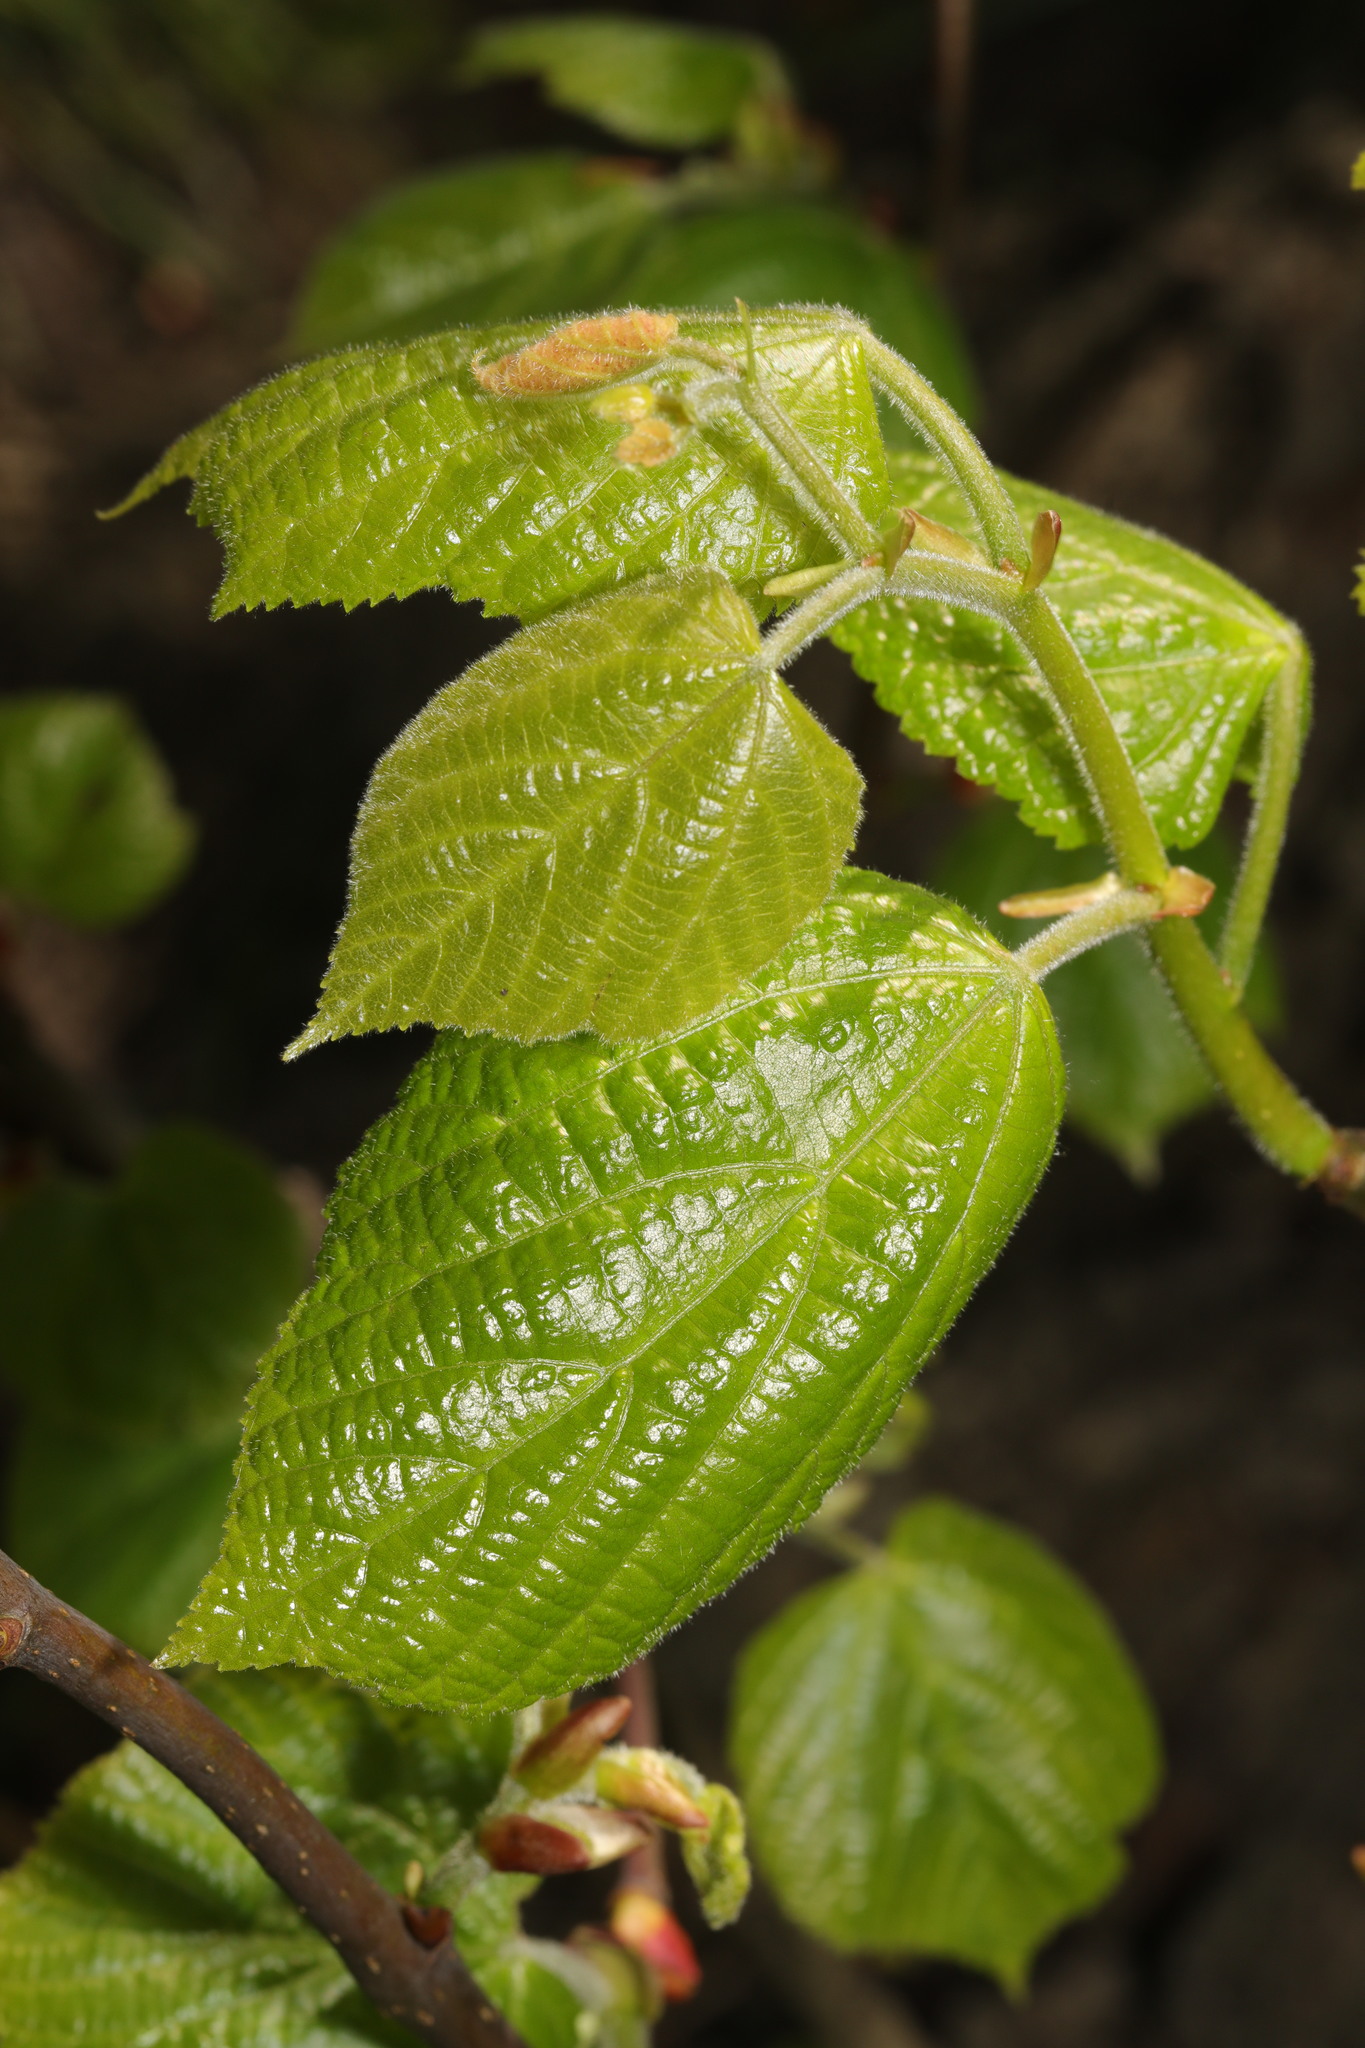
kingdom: Plantae
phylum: Tracheophyta
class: Magnoliopsida
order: Malvales
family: Malvaceae
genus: Tilia
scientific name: Tilia europaea
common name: European linden
